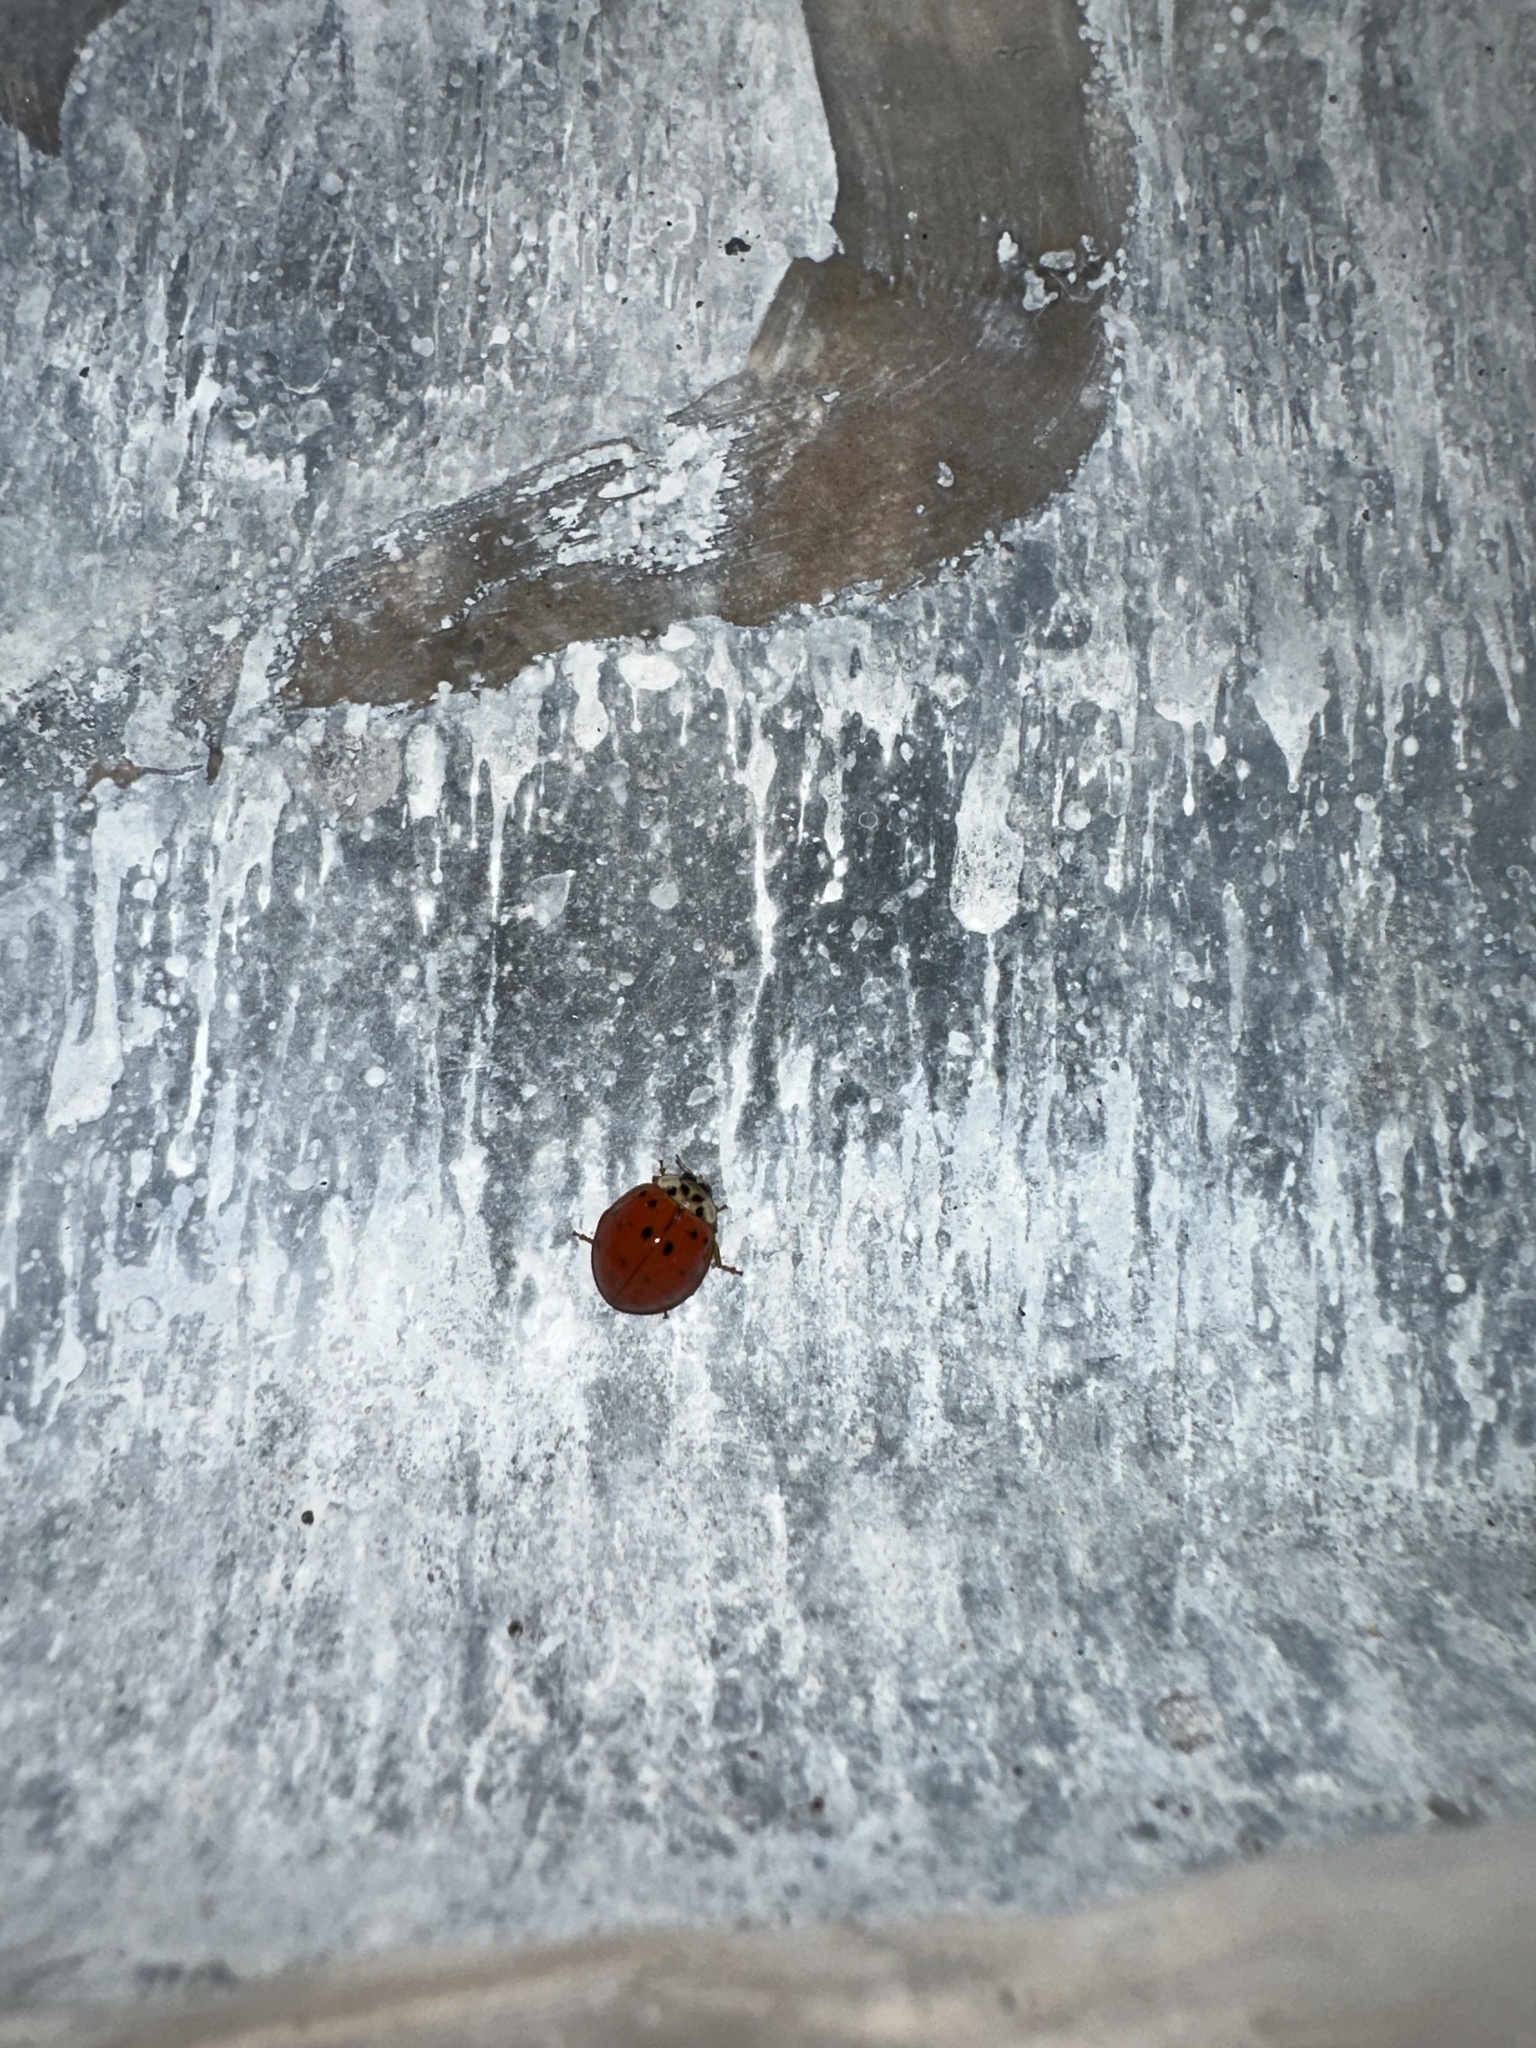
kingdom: Animalia
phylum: Arthropoda
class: Insecta
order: Coleoptera
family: Coccinellidae
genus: Harmonia
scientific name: Harmonia axyridis
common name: Harlequin ladybird
